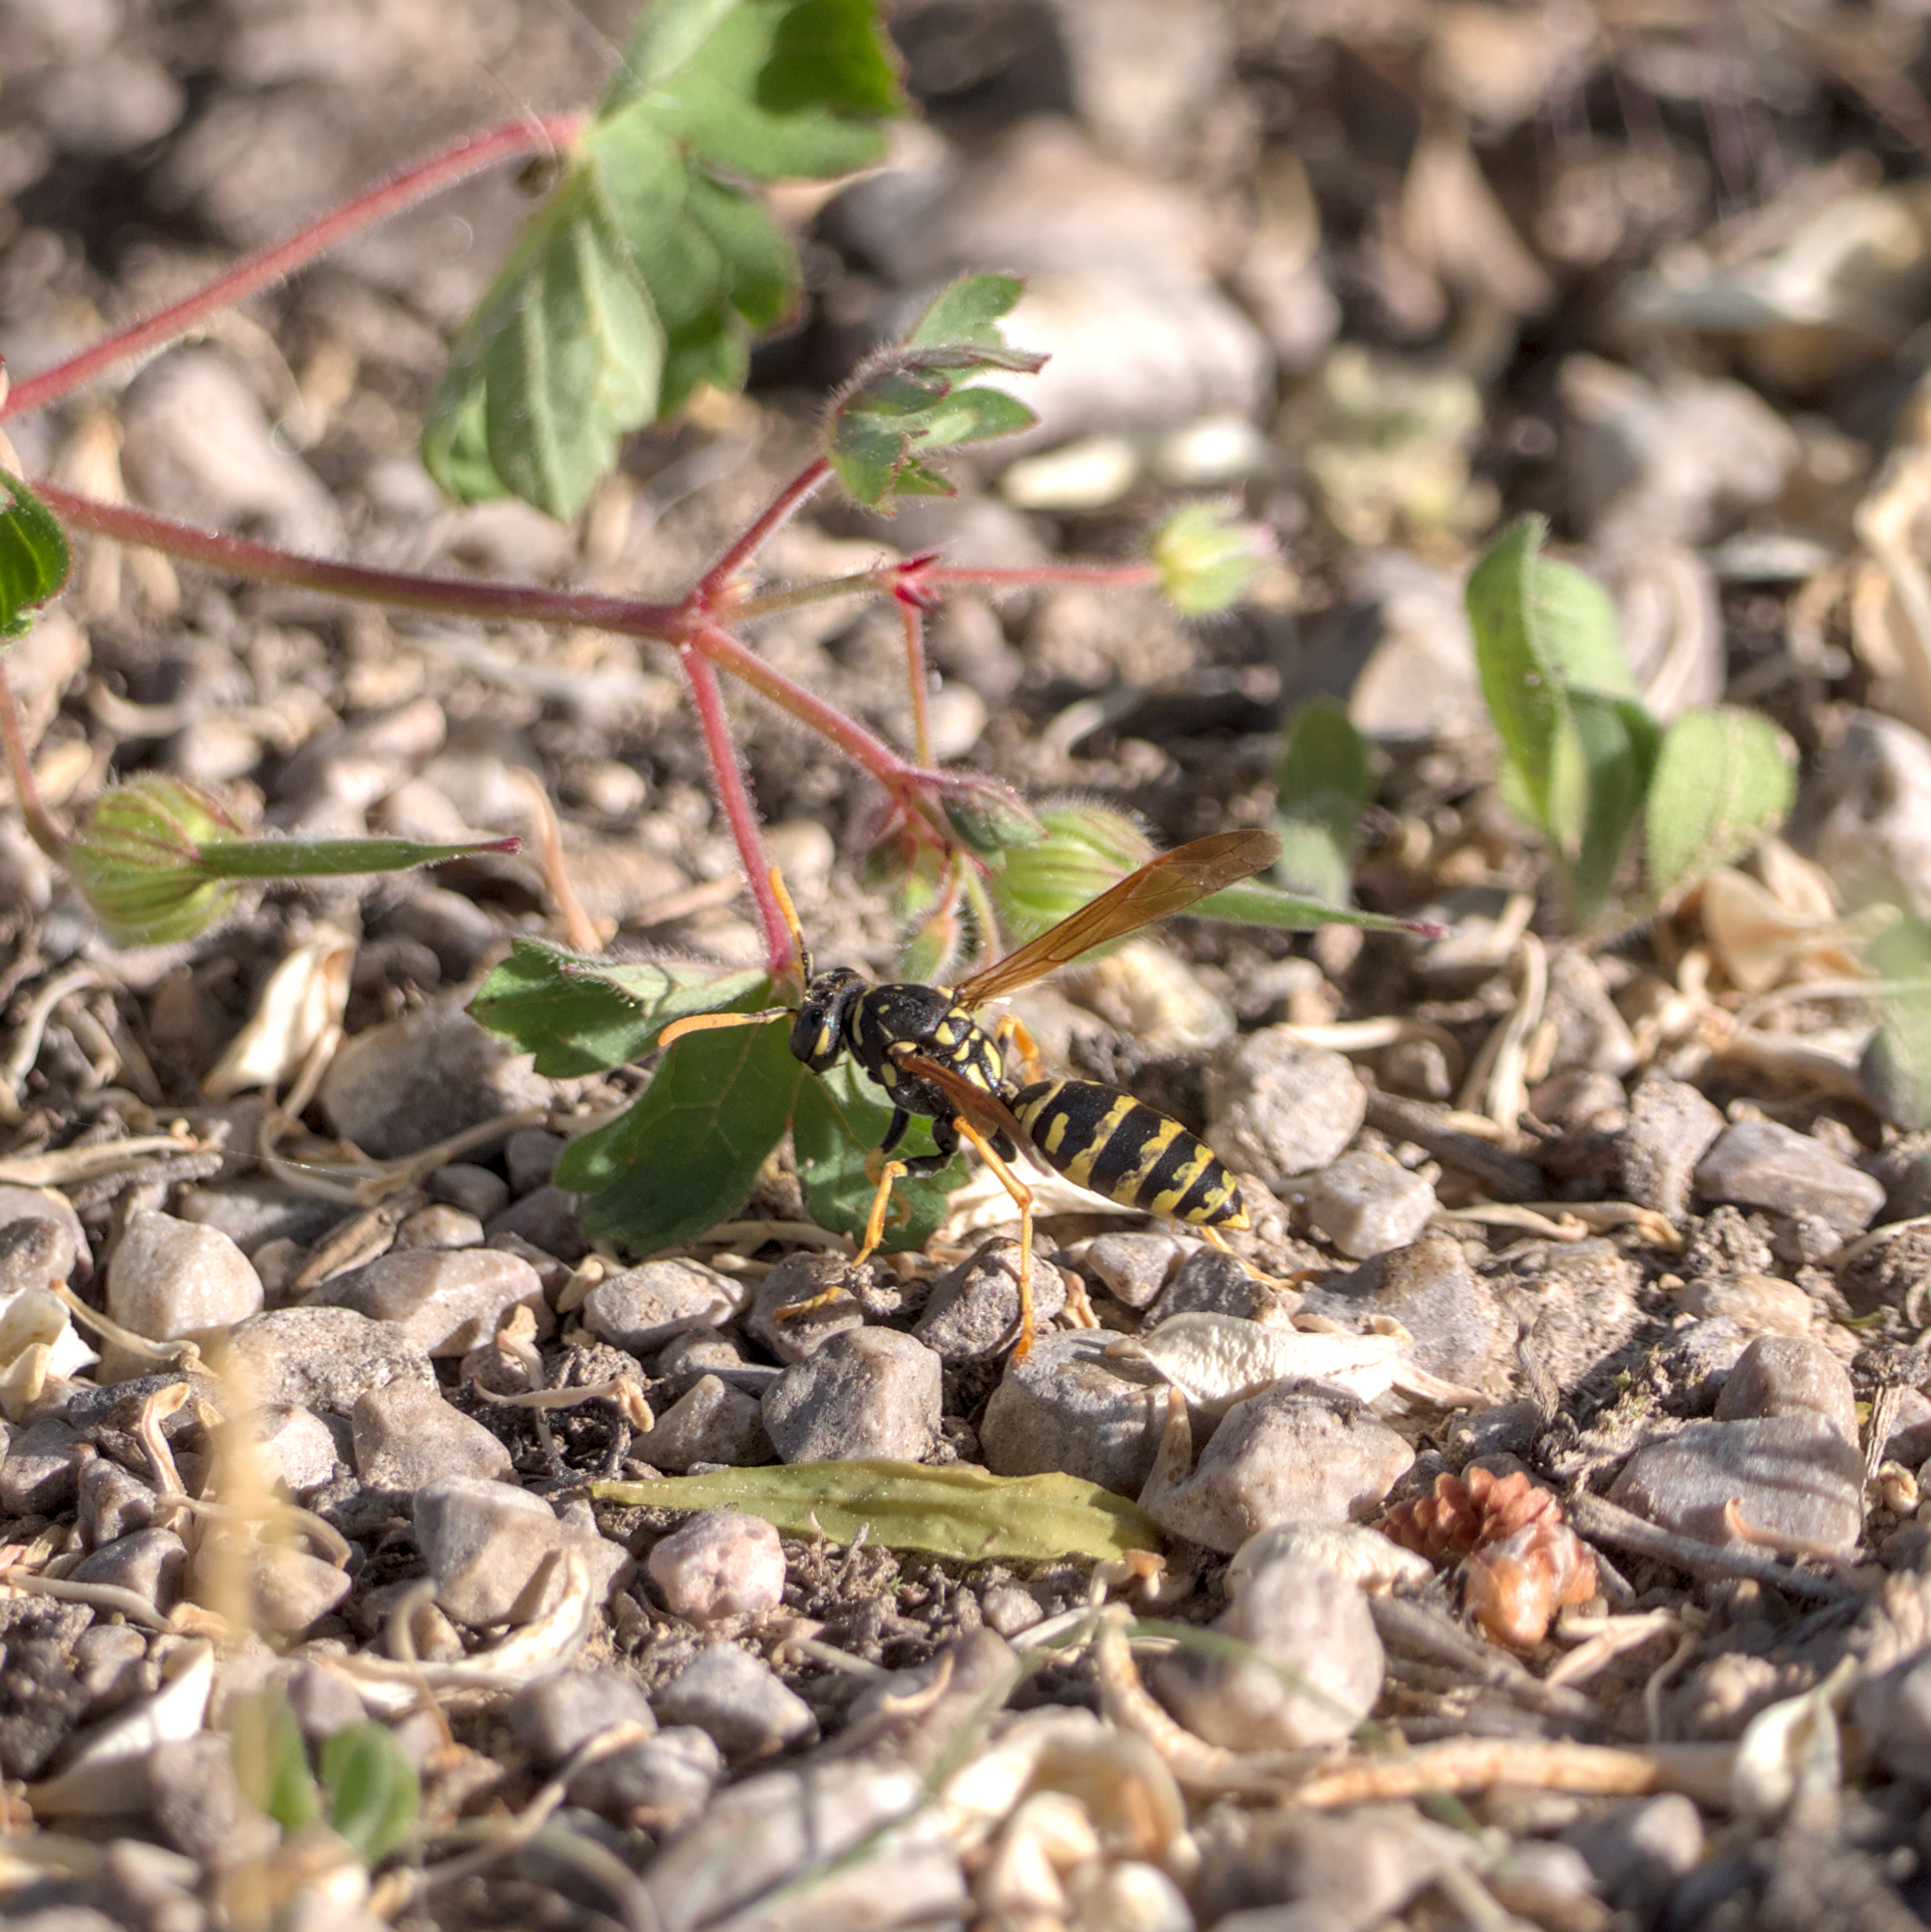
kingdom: Animalia
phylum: Arthropoda
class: Insecta
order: Hymenoptera
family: Eumenidae
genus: Polistes
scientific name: Polistes dominula
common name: Paper wasp
